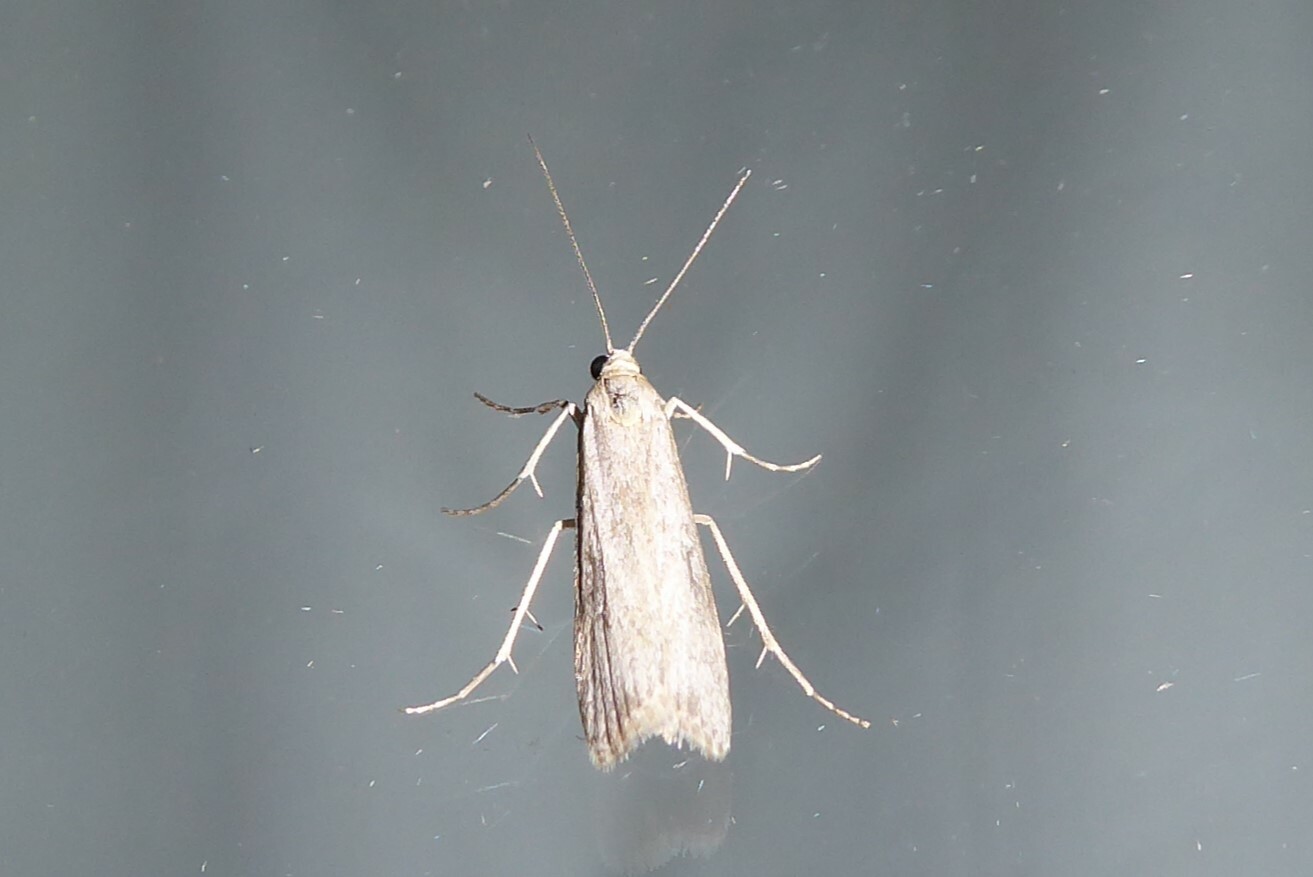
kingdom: Animalia
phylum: Arthropoda
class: Insecta
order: Lepidoptera
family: Crambidae
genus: Eudonia
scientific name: Eudonia leptalea
